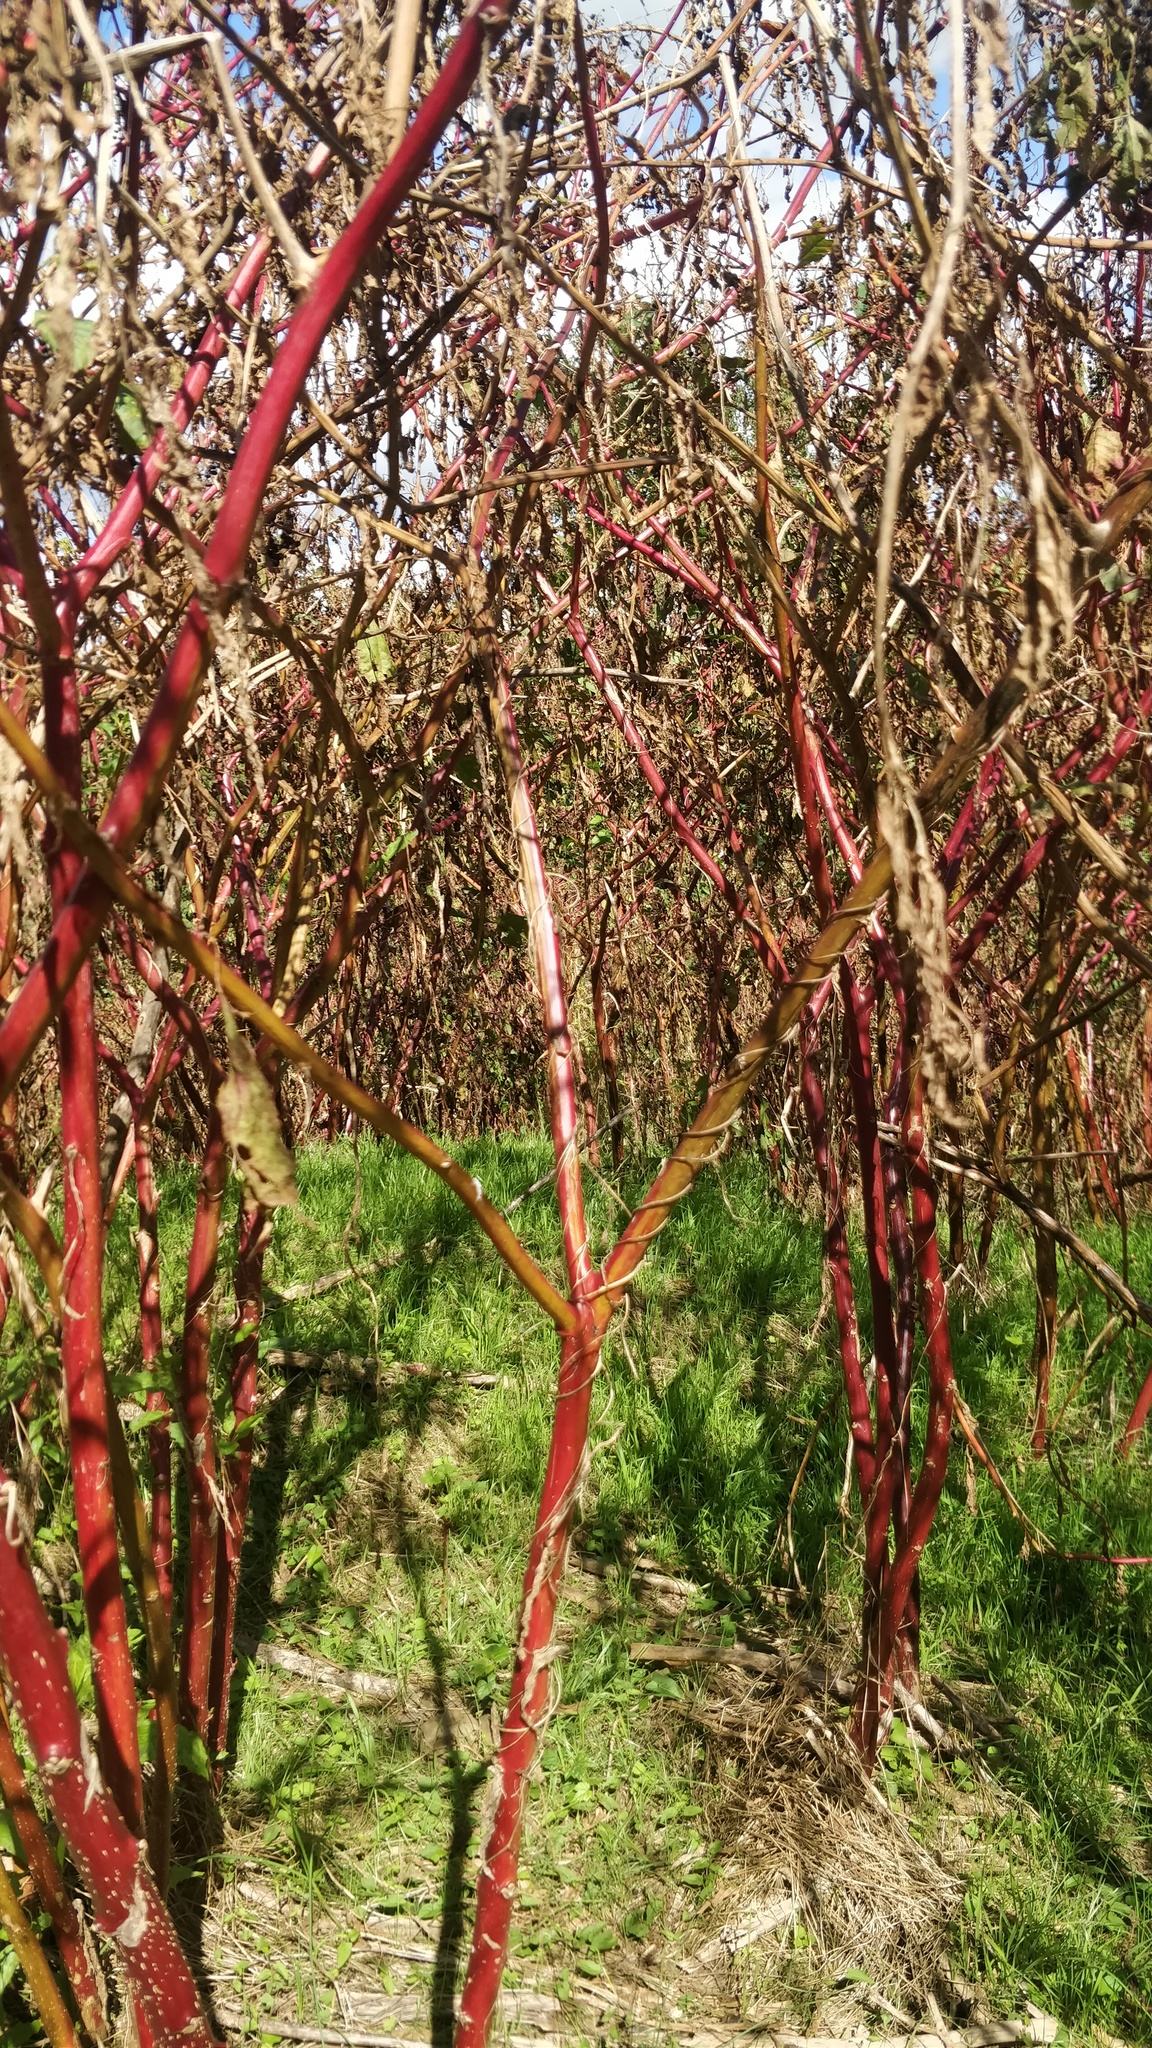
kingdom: Plantae
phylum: Tracheophyta
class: Magnoliopsida
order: Caryophyllales
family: Phytolaccaceae
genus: Phytolacca
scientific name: Phytolacca americana
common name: American pokeweed
